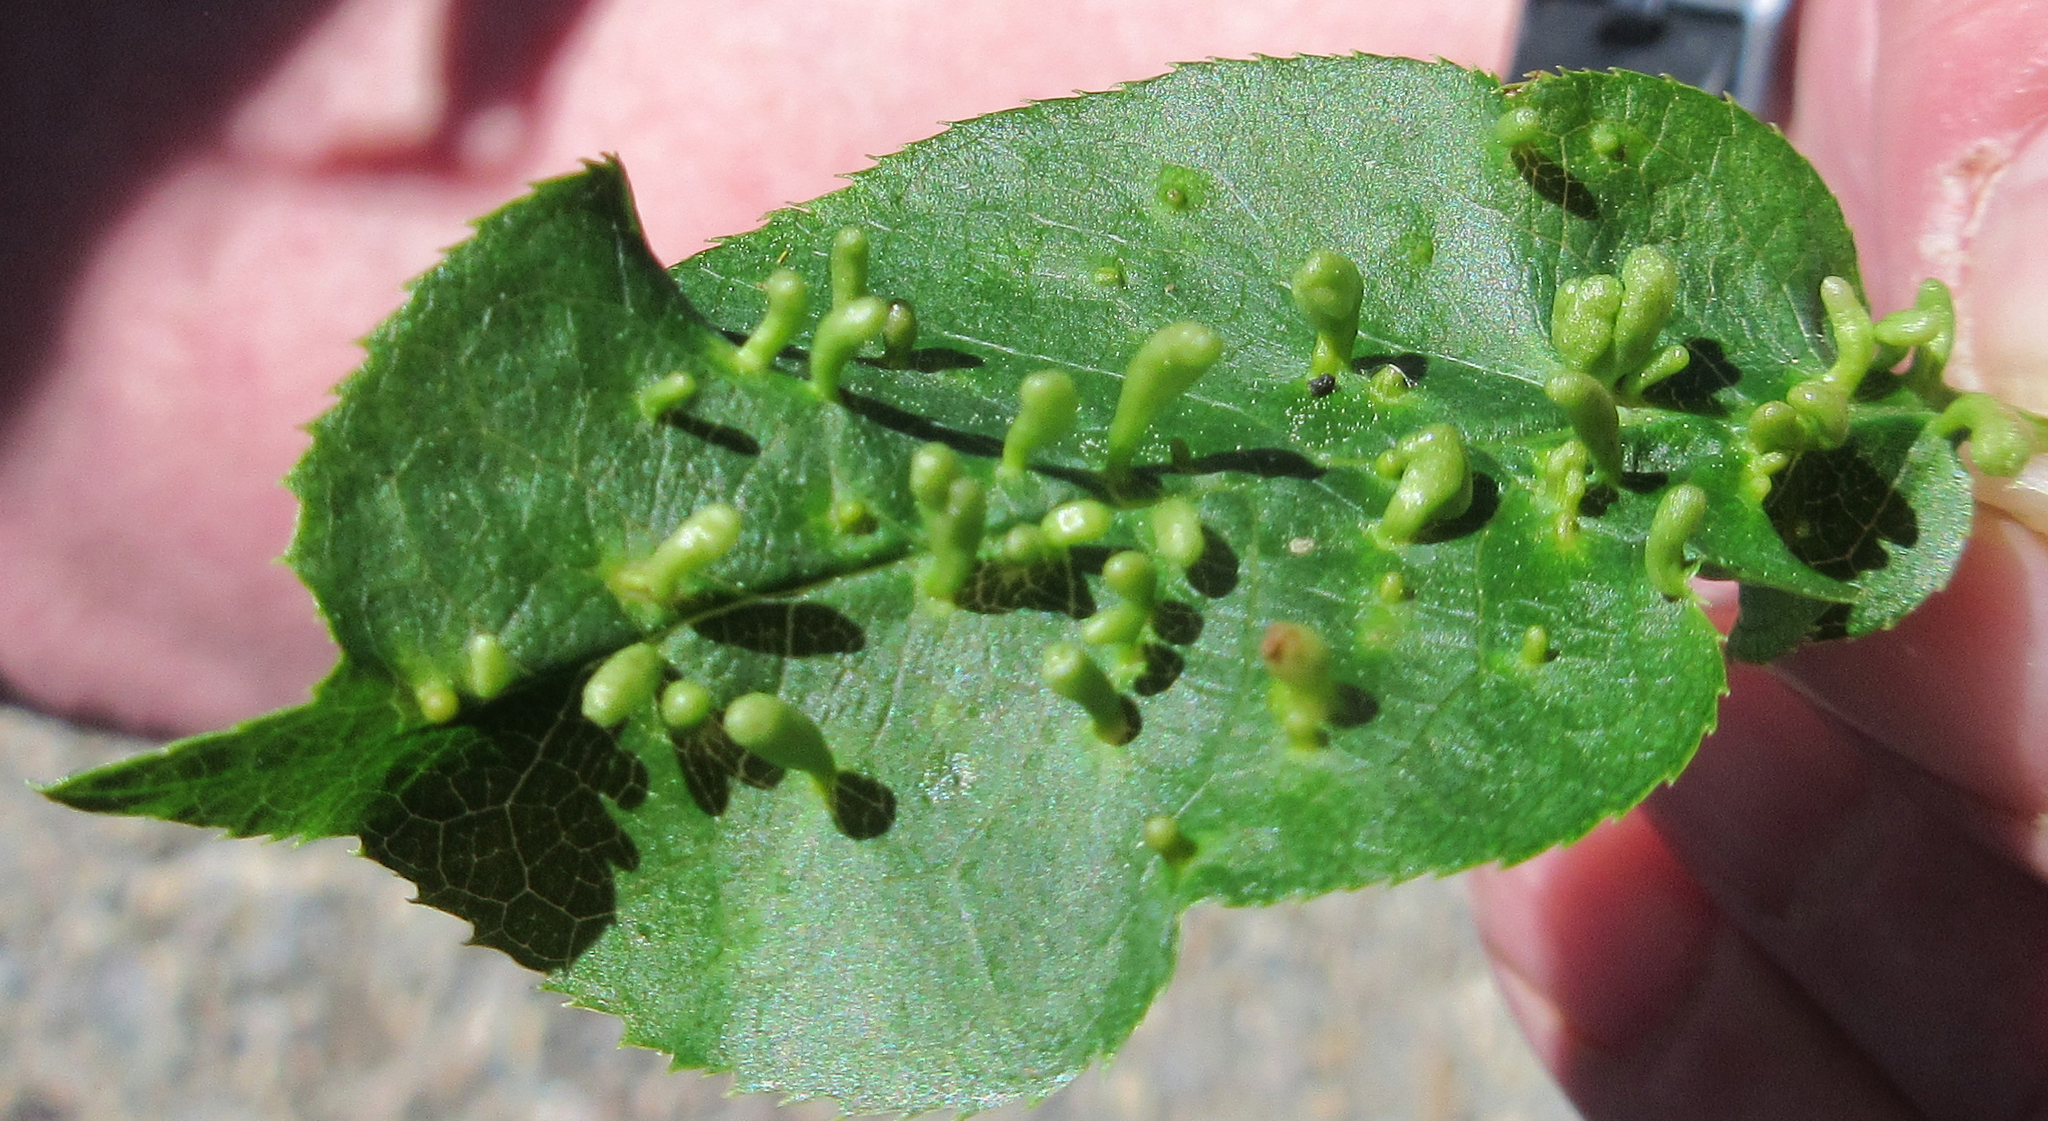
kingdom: Animalia
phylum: Arthropoda
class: Arachnida
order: Trombidiformes
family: Eriophyidae
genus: Eriophyes
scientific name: Eriophyes emarginatae
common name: Plum leaf gall mite
